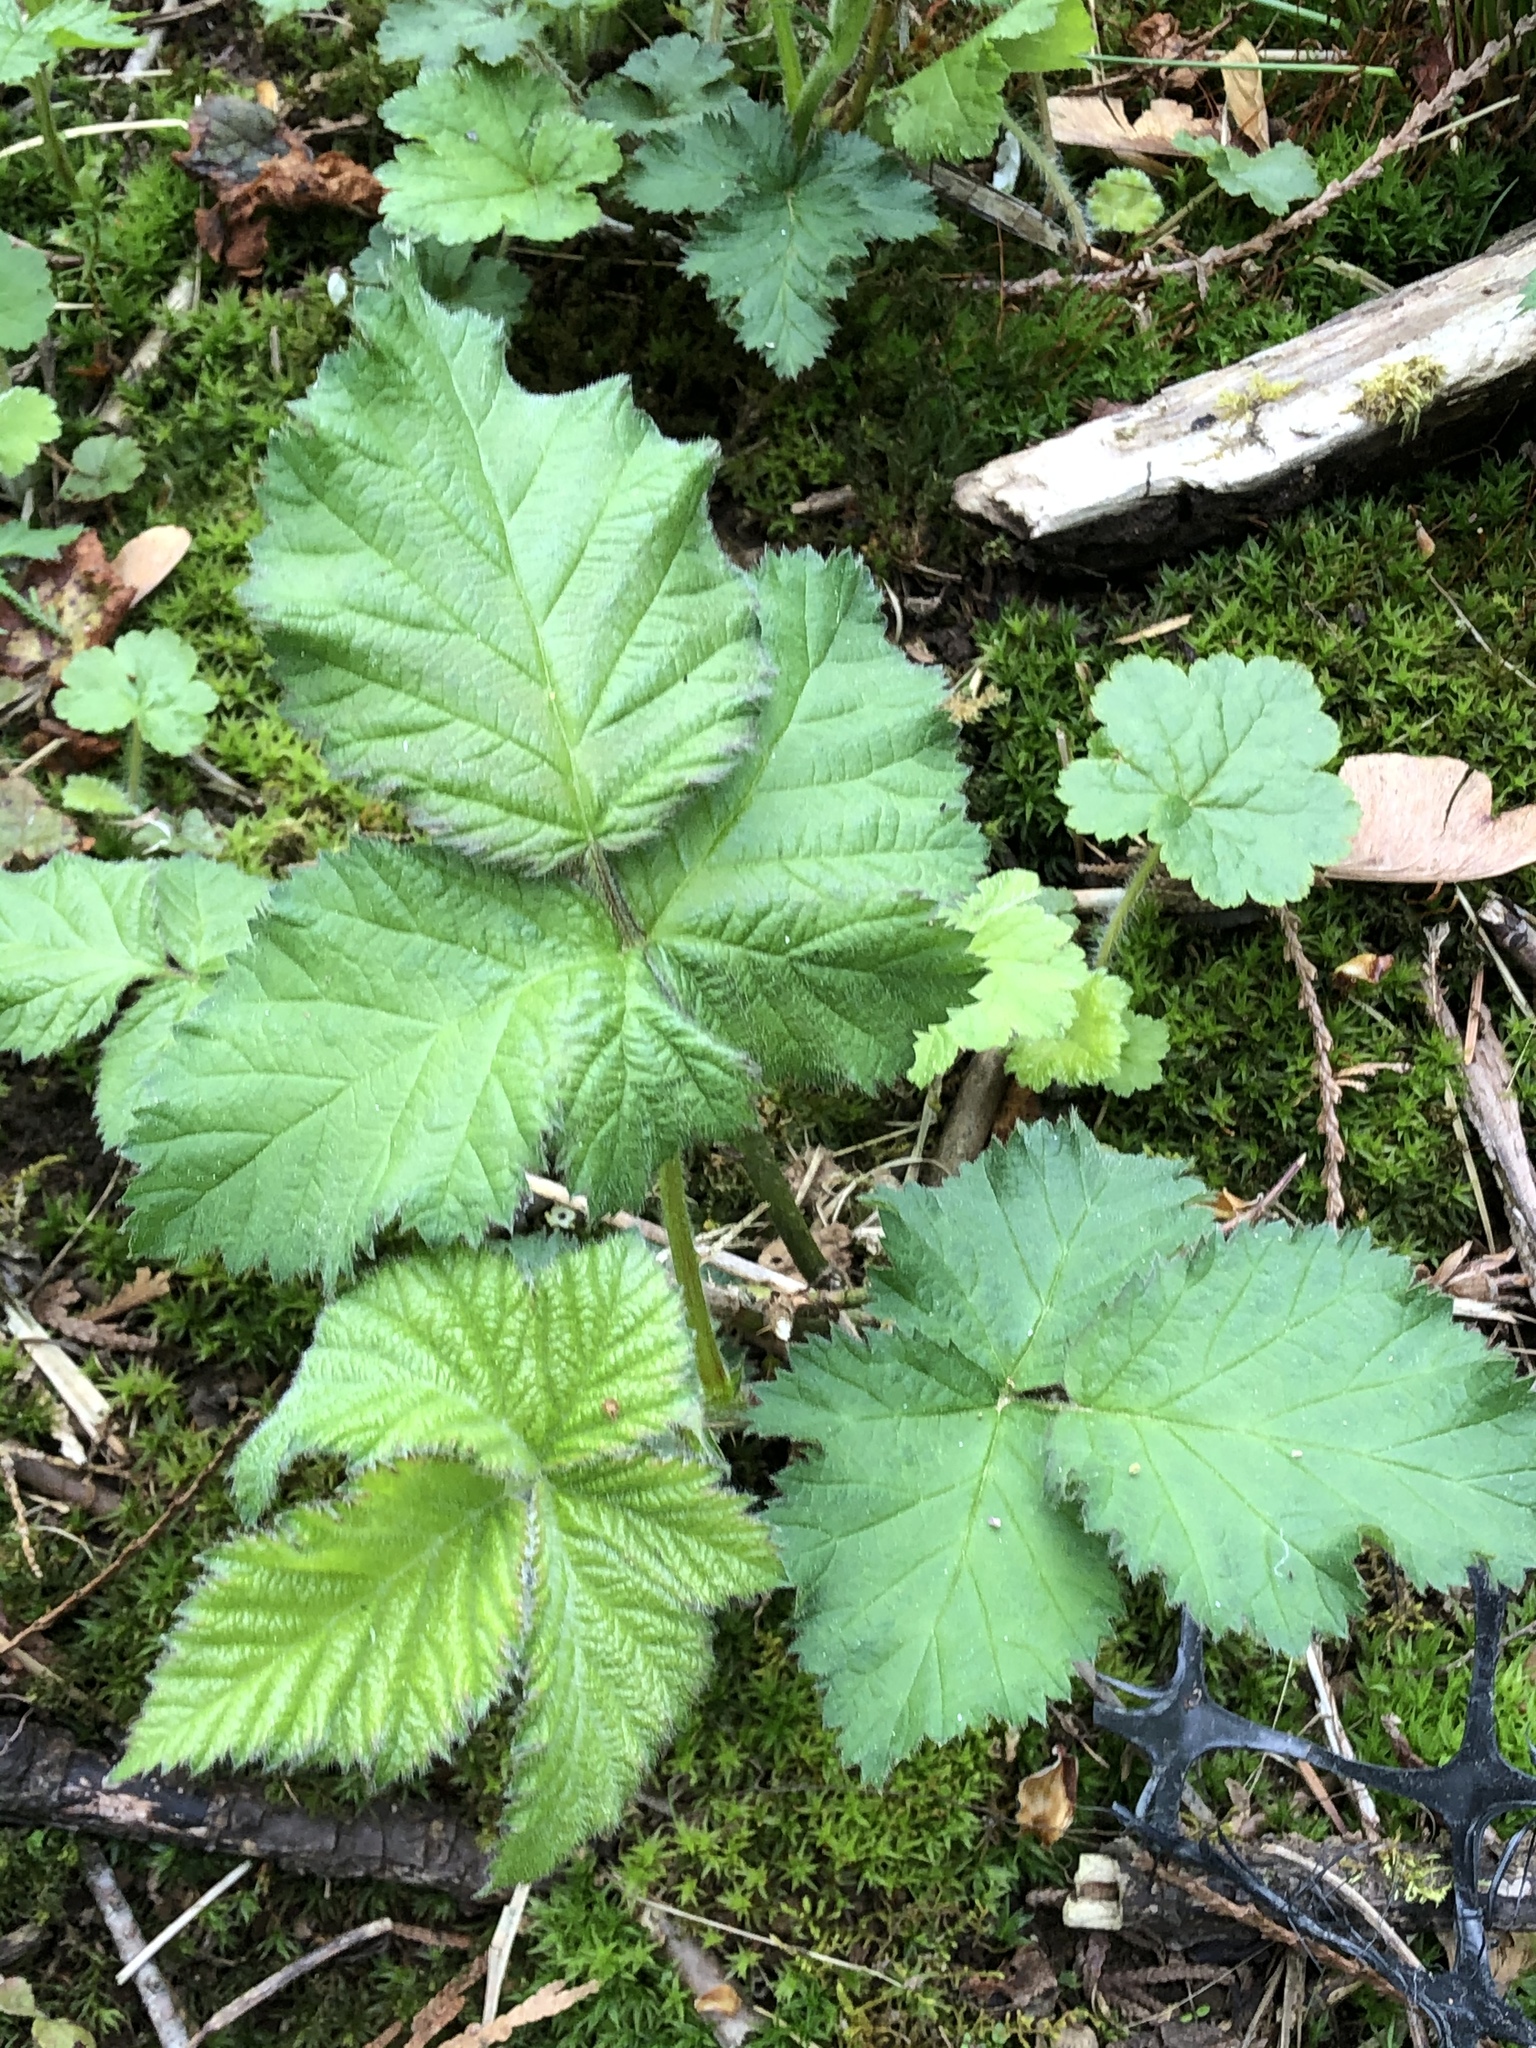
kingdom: Plantae
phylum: Tracheophyta
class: Magnoliopsida
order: Rosales
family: Rosaceae
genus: Rubus
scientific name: Rubus bifrons
